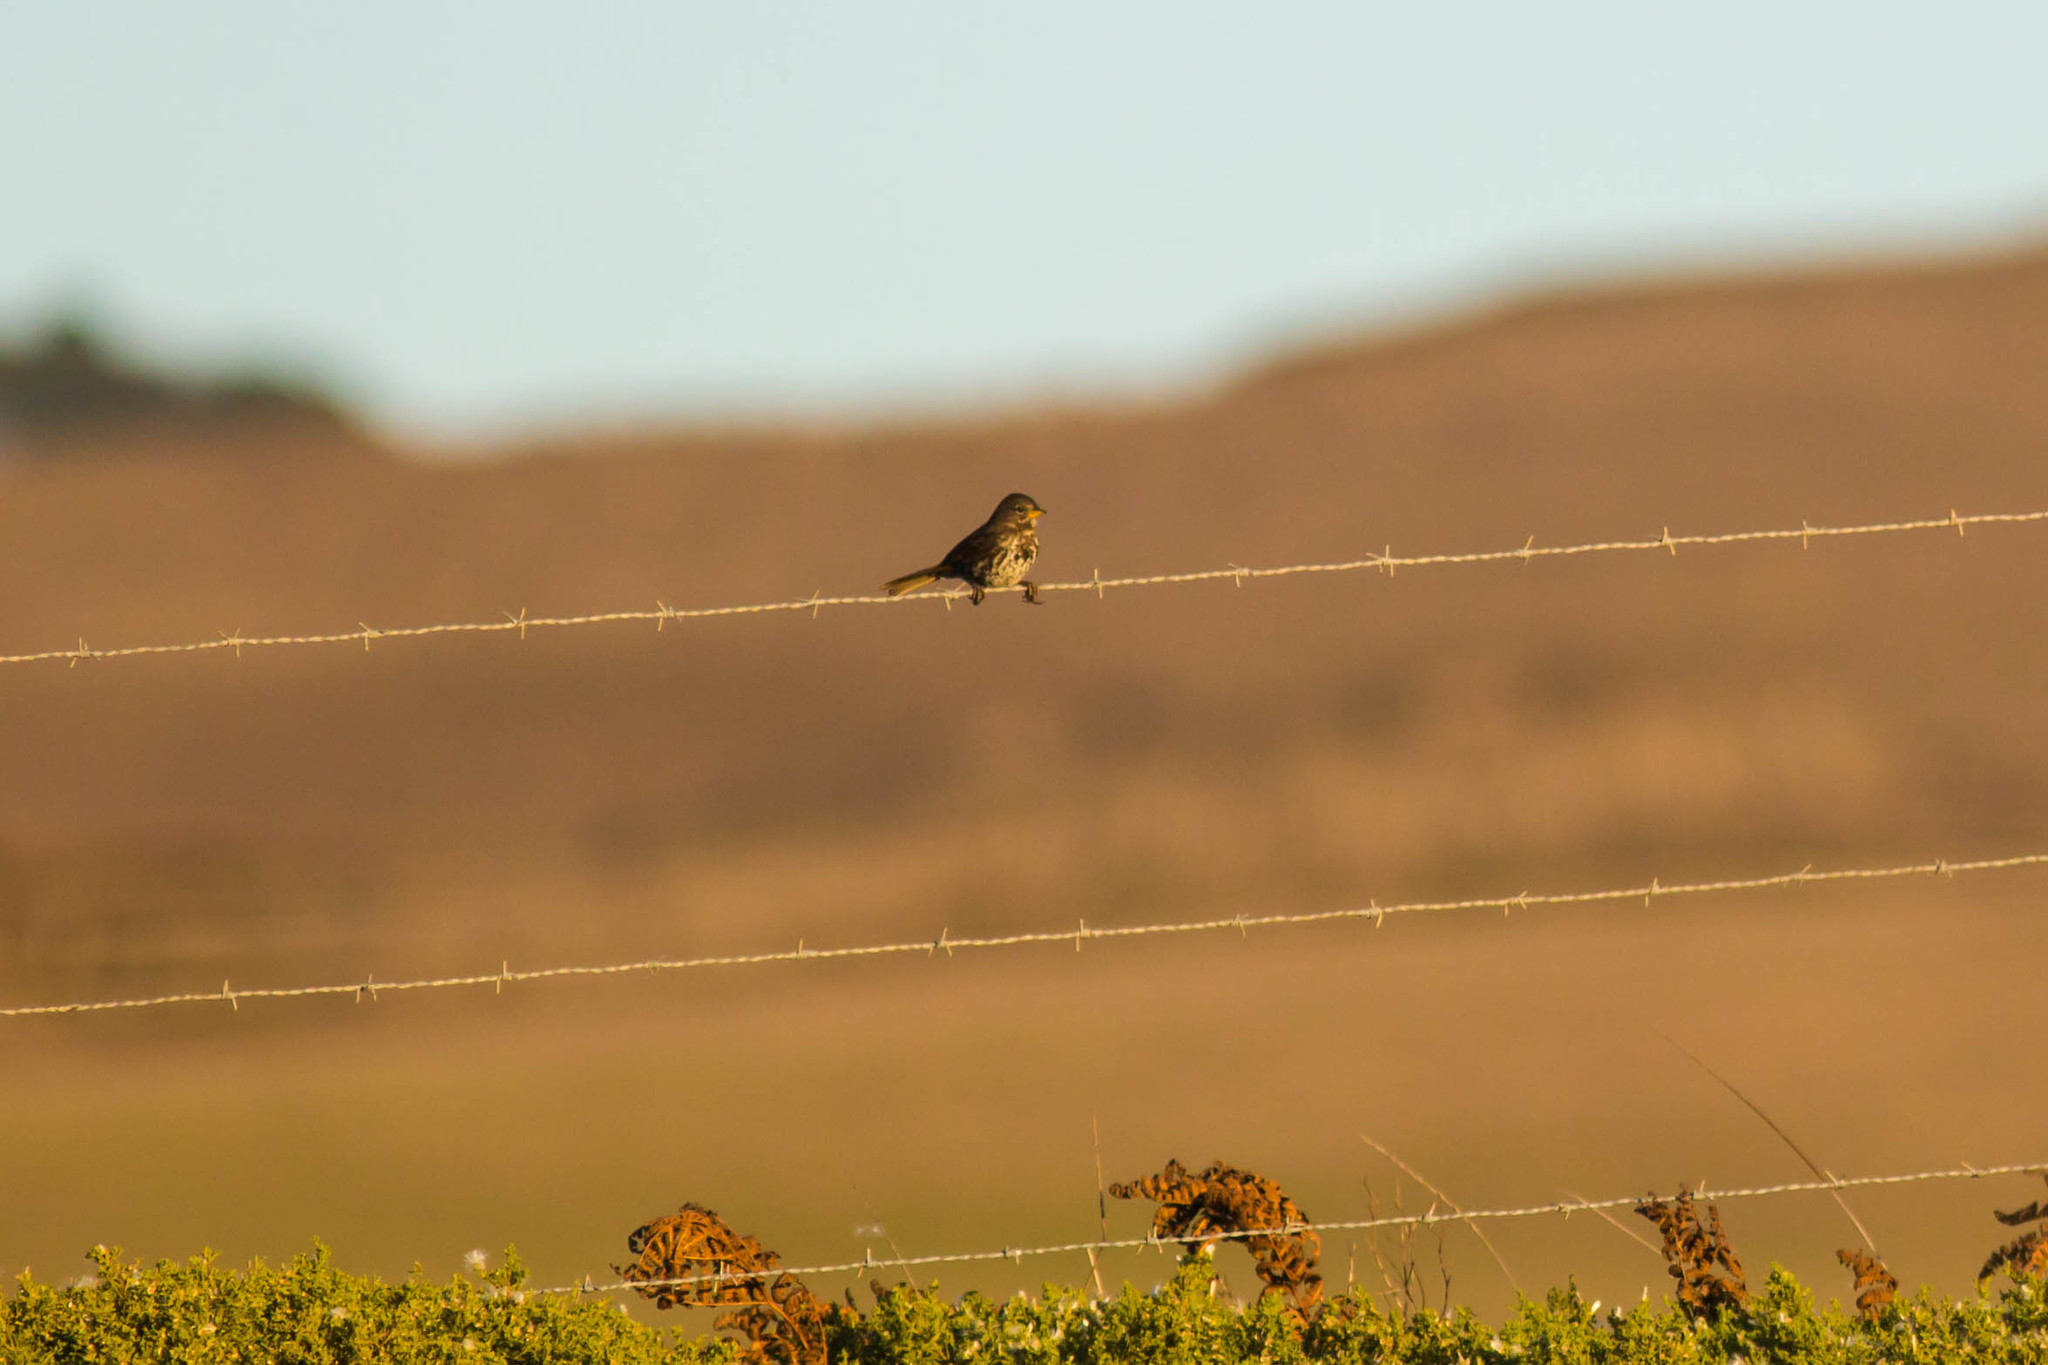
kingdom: Animalia
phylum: Chordata
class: Aves
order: Passeriformes
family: Passerellidae
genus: Passerella
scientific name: Passerella iliaca
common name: Fox sparrow
